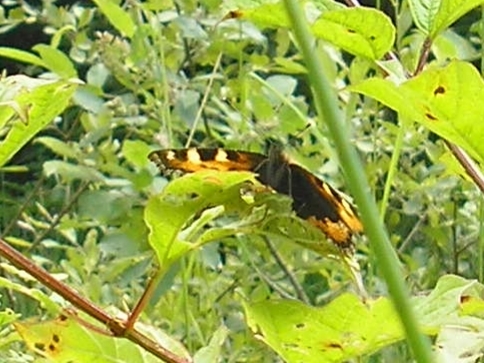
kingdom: Animalia
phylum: Arthropoda
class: Insecta
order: Lepidoptera
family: Nymphalidae
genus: Aglais
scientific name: Aglais urticae
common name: Small tortoiseshell
